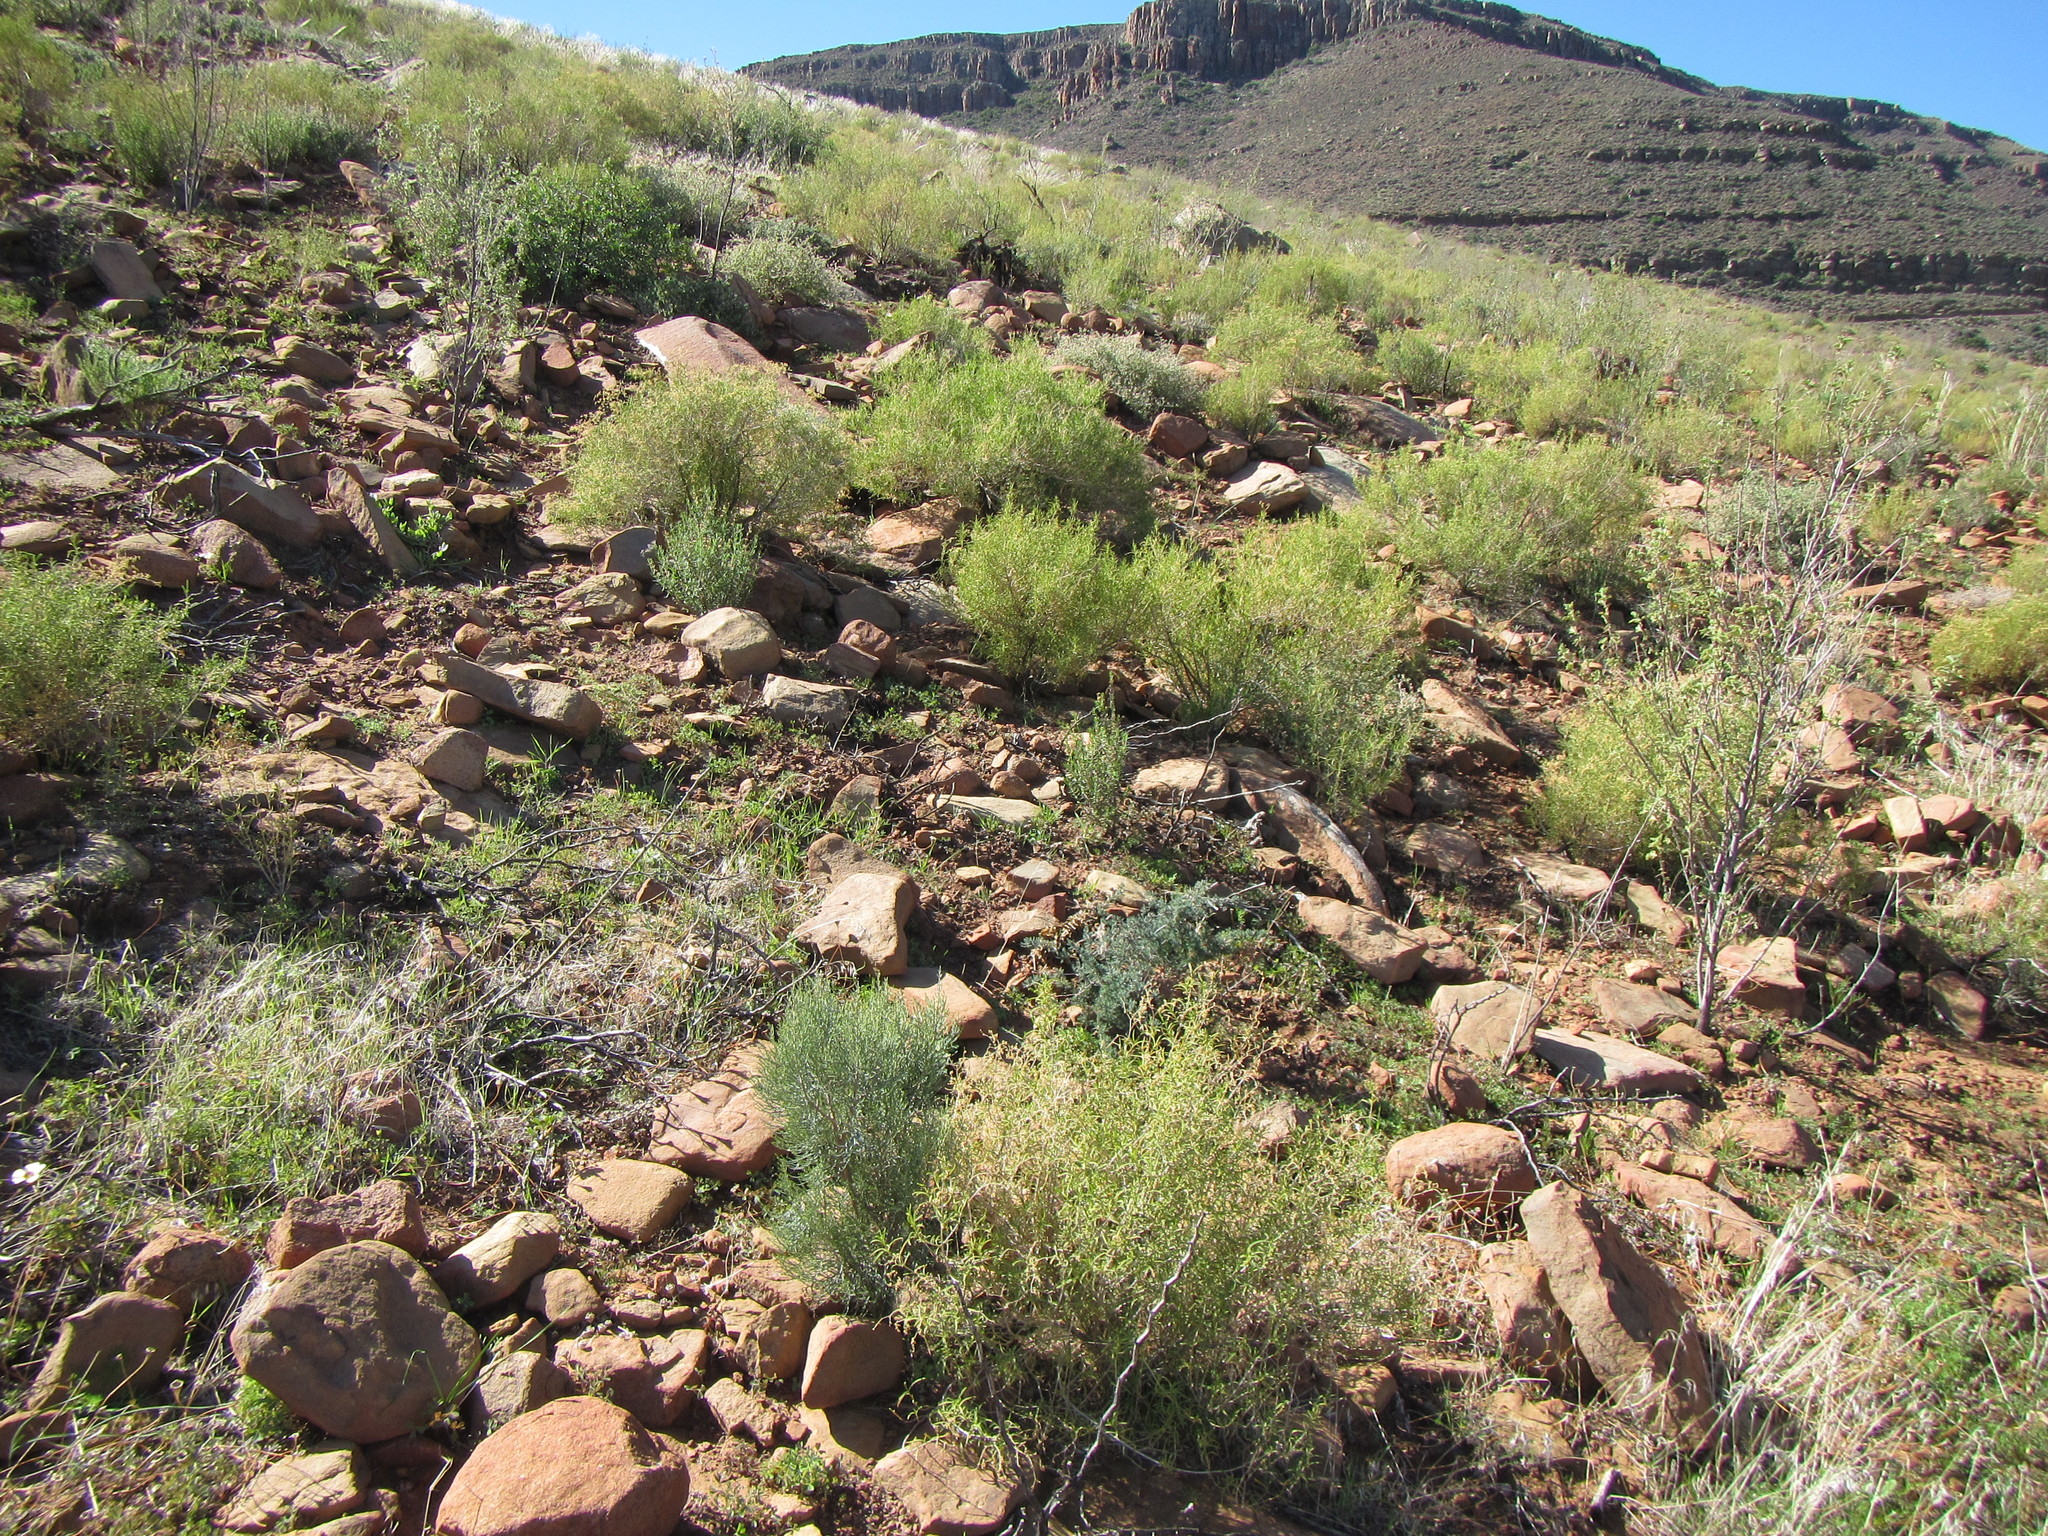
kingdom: Plantae
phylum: Tracheophyta
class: Magnoliopsida
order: Asterales
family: Asteraceae
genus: Dicerothamnus
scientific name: Dicerothamnus rhinocerotis
